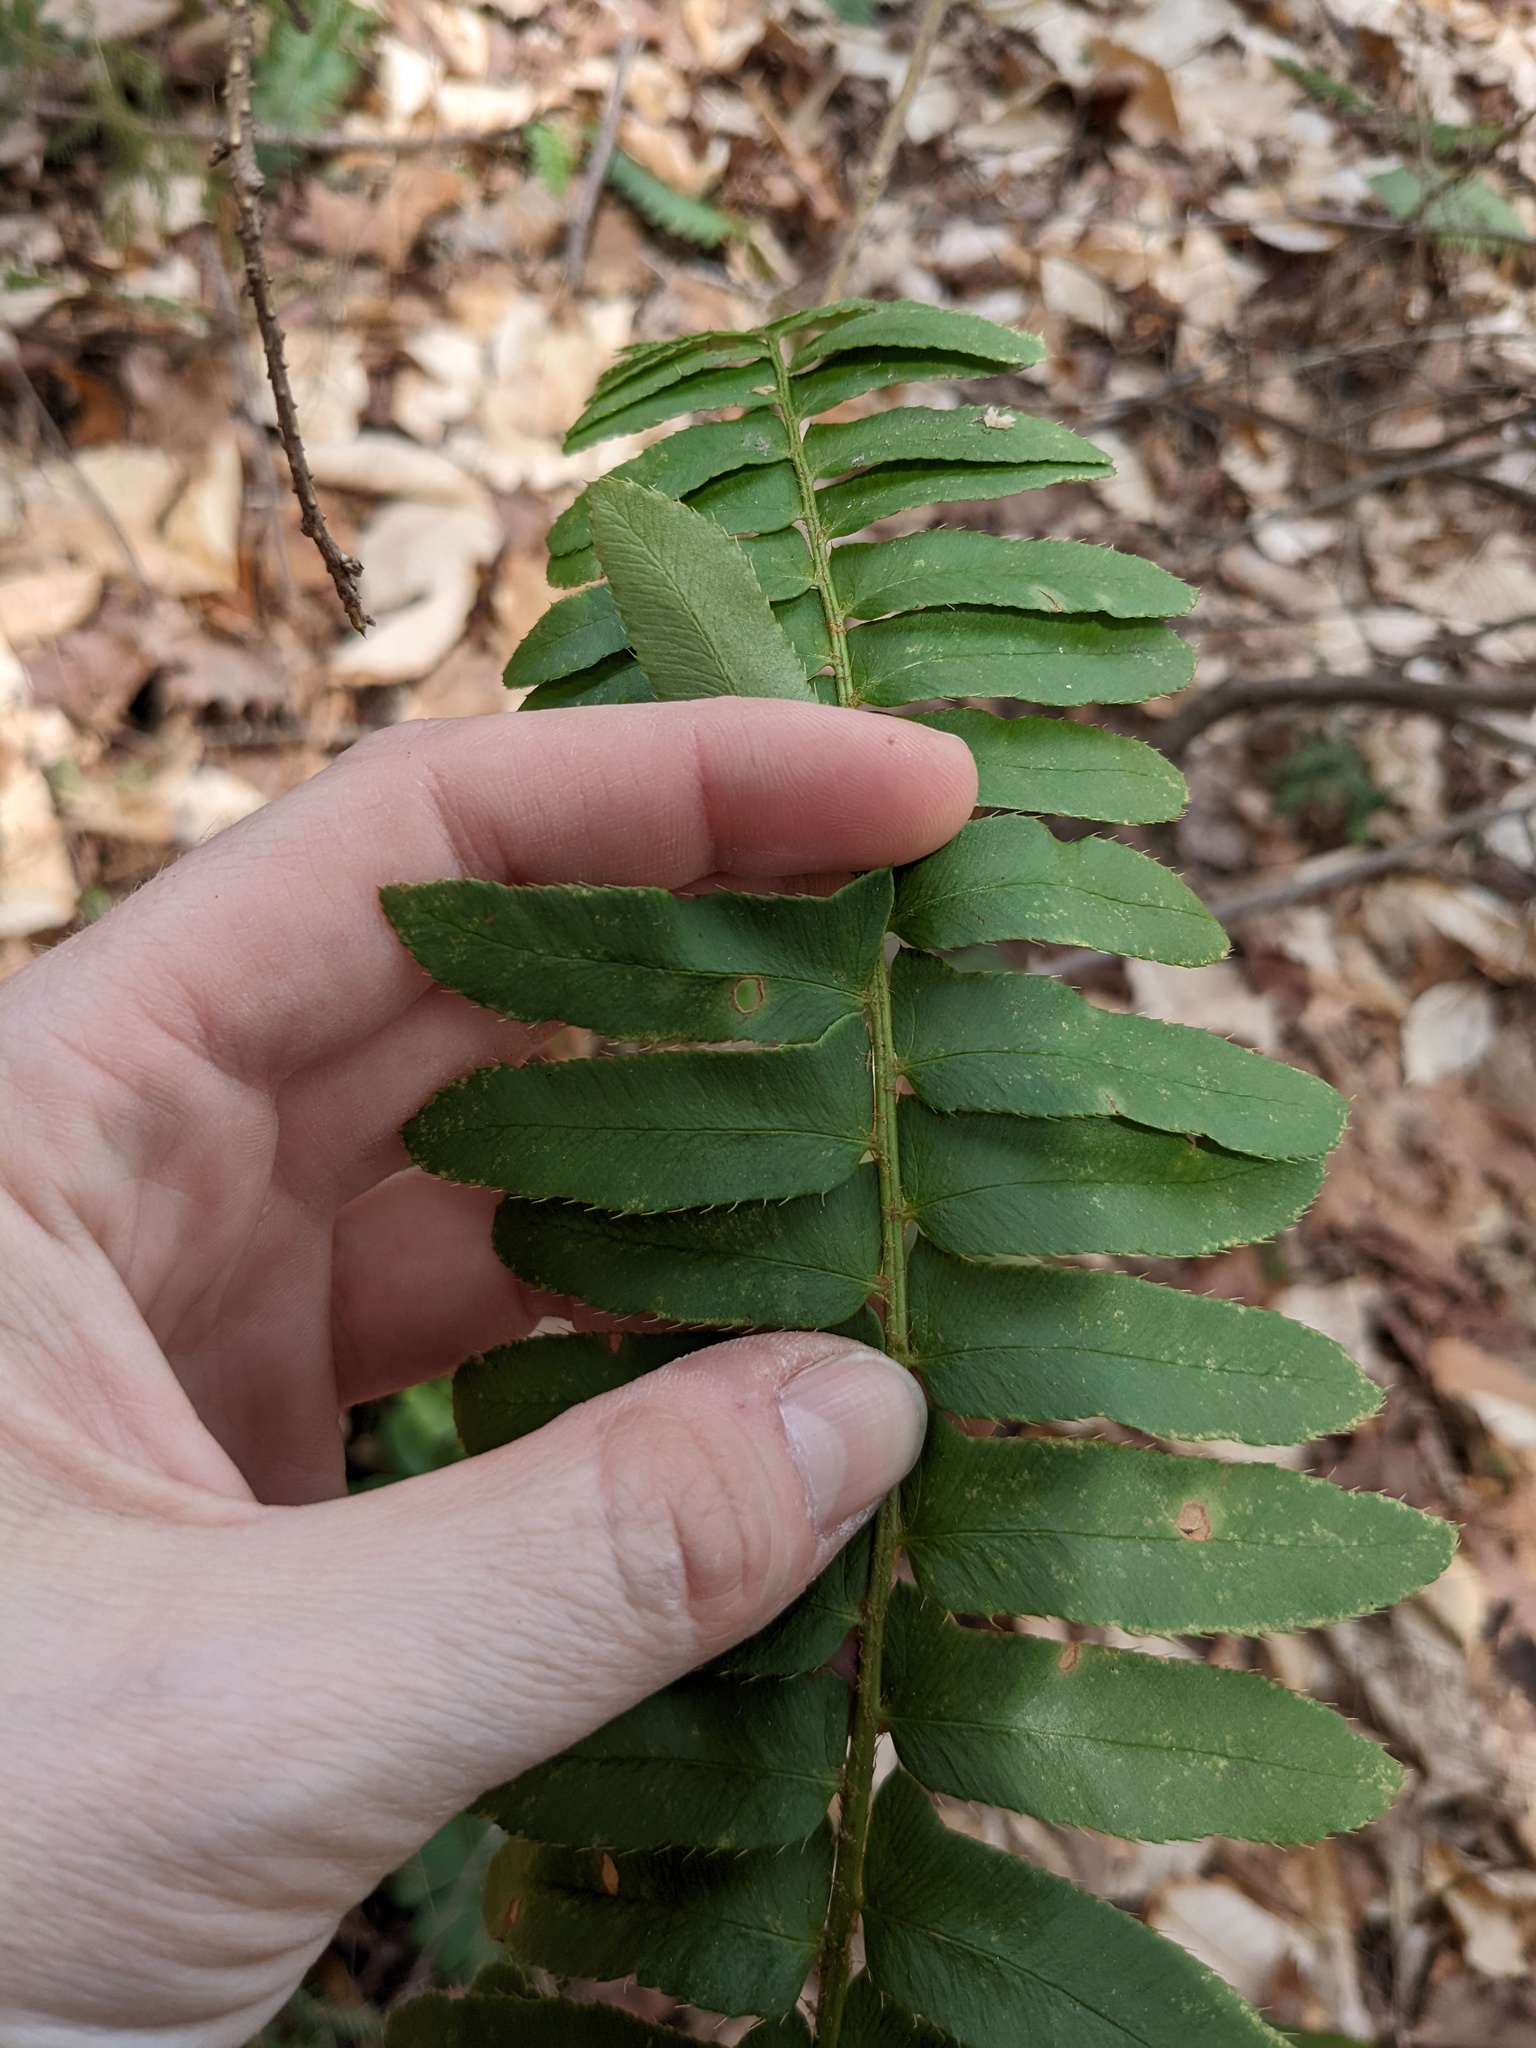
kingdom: Plantae
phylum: Tracheophyta
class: Polypodiopsida
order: Polypodiales
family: Dryopteridaceae
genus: Polystichum
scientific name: Polystichum acrostichoides
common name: Christmas fern
